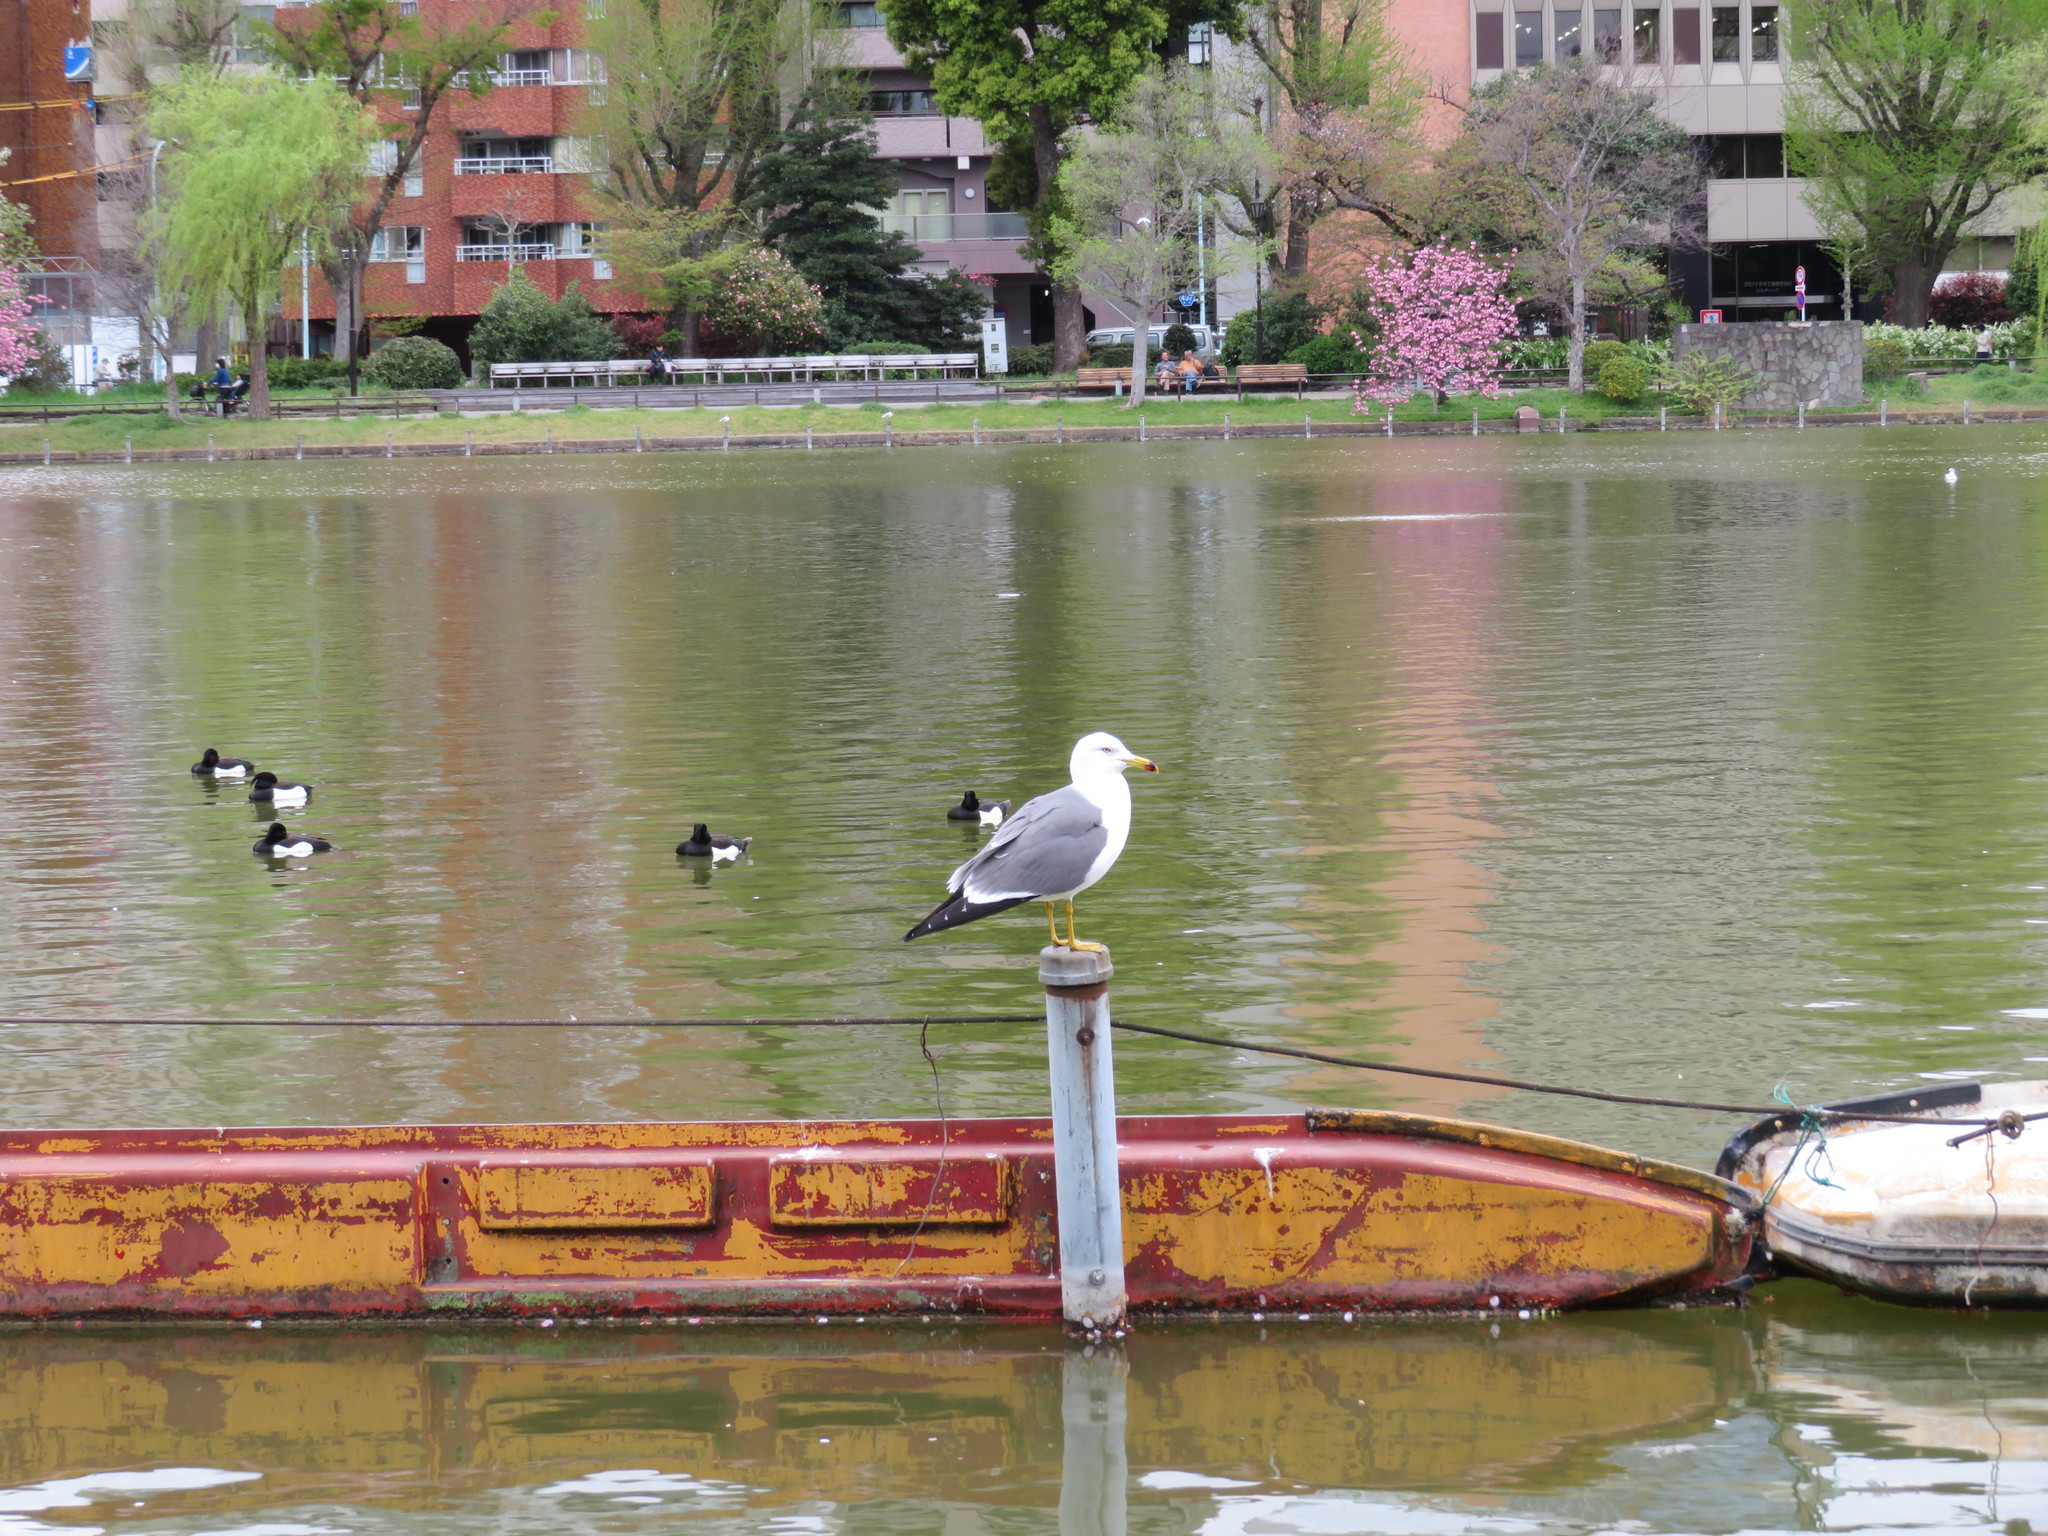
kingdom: Animalia
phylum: Chordata
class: Aves
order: Charadriiformes
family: Laridae
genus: Larus
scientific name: Larus crassirostris
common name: Black-tailed gull
